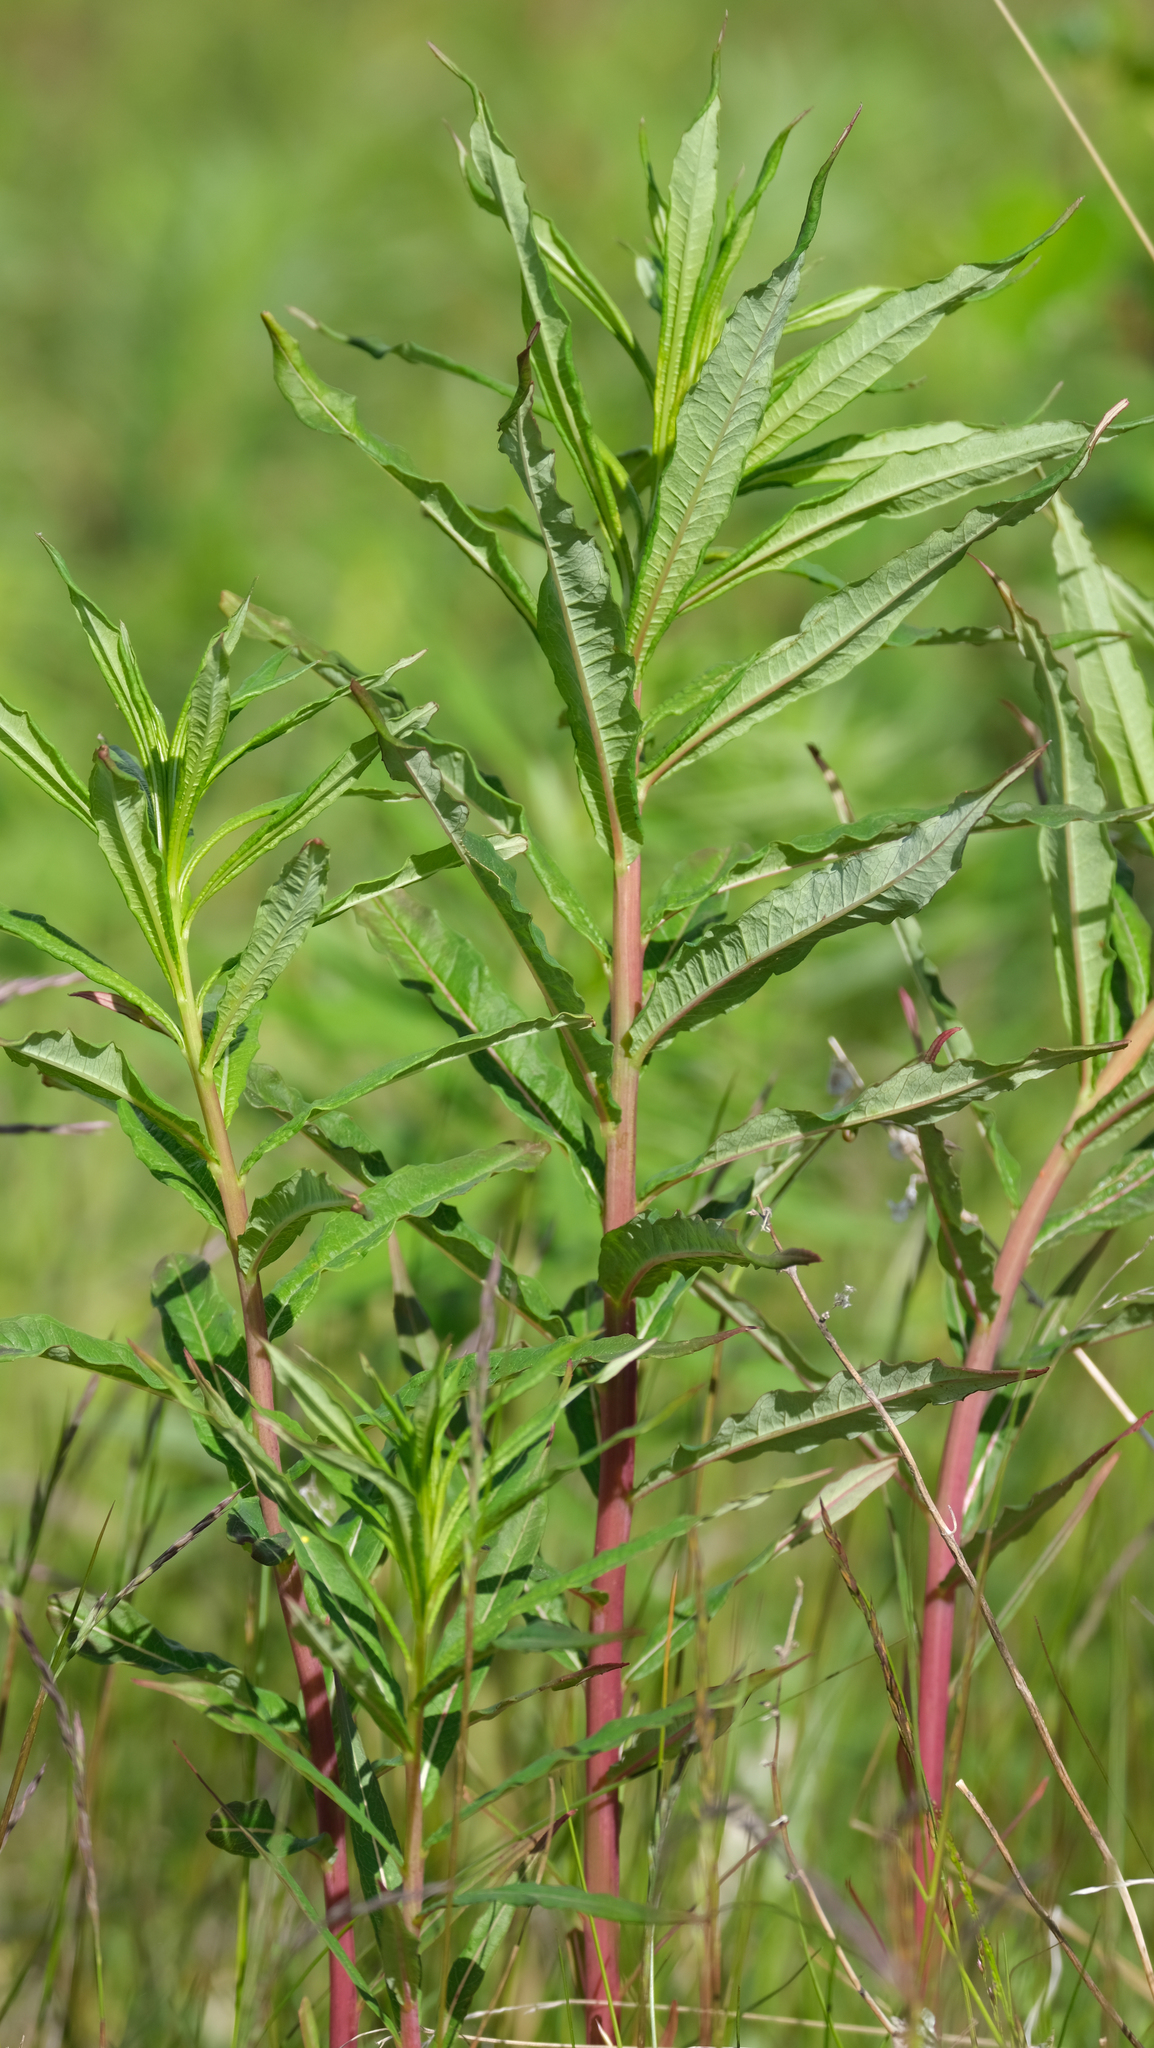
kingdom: Plantae
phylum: Tracheophyta
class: Magnoliopsida
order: Myrtales
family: Onagraceae
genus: Chamaenerion
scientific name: Chamaenerion angustifolium
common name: Fireweed
